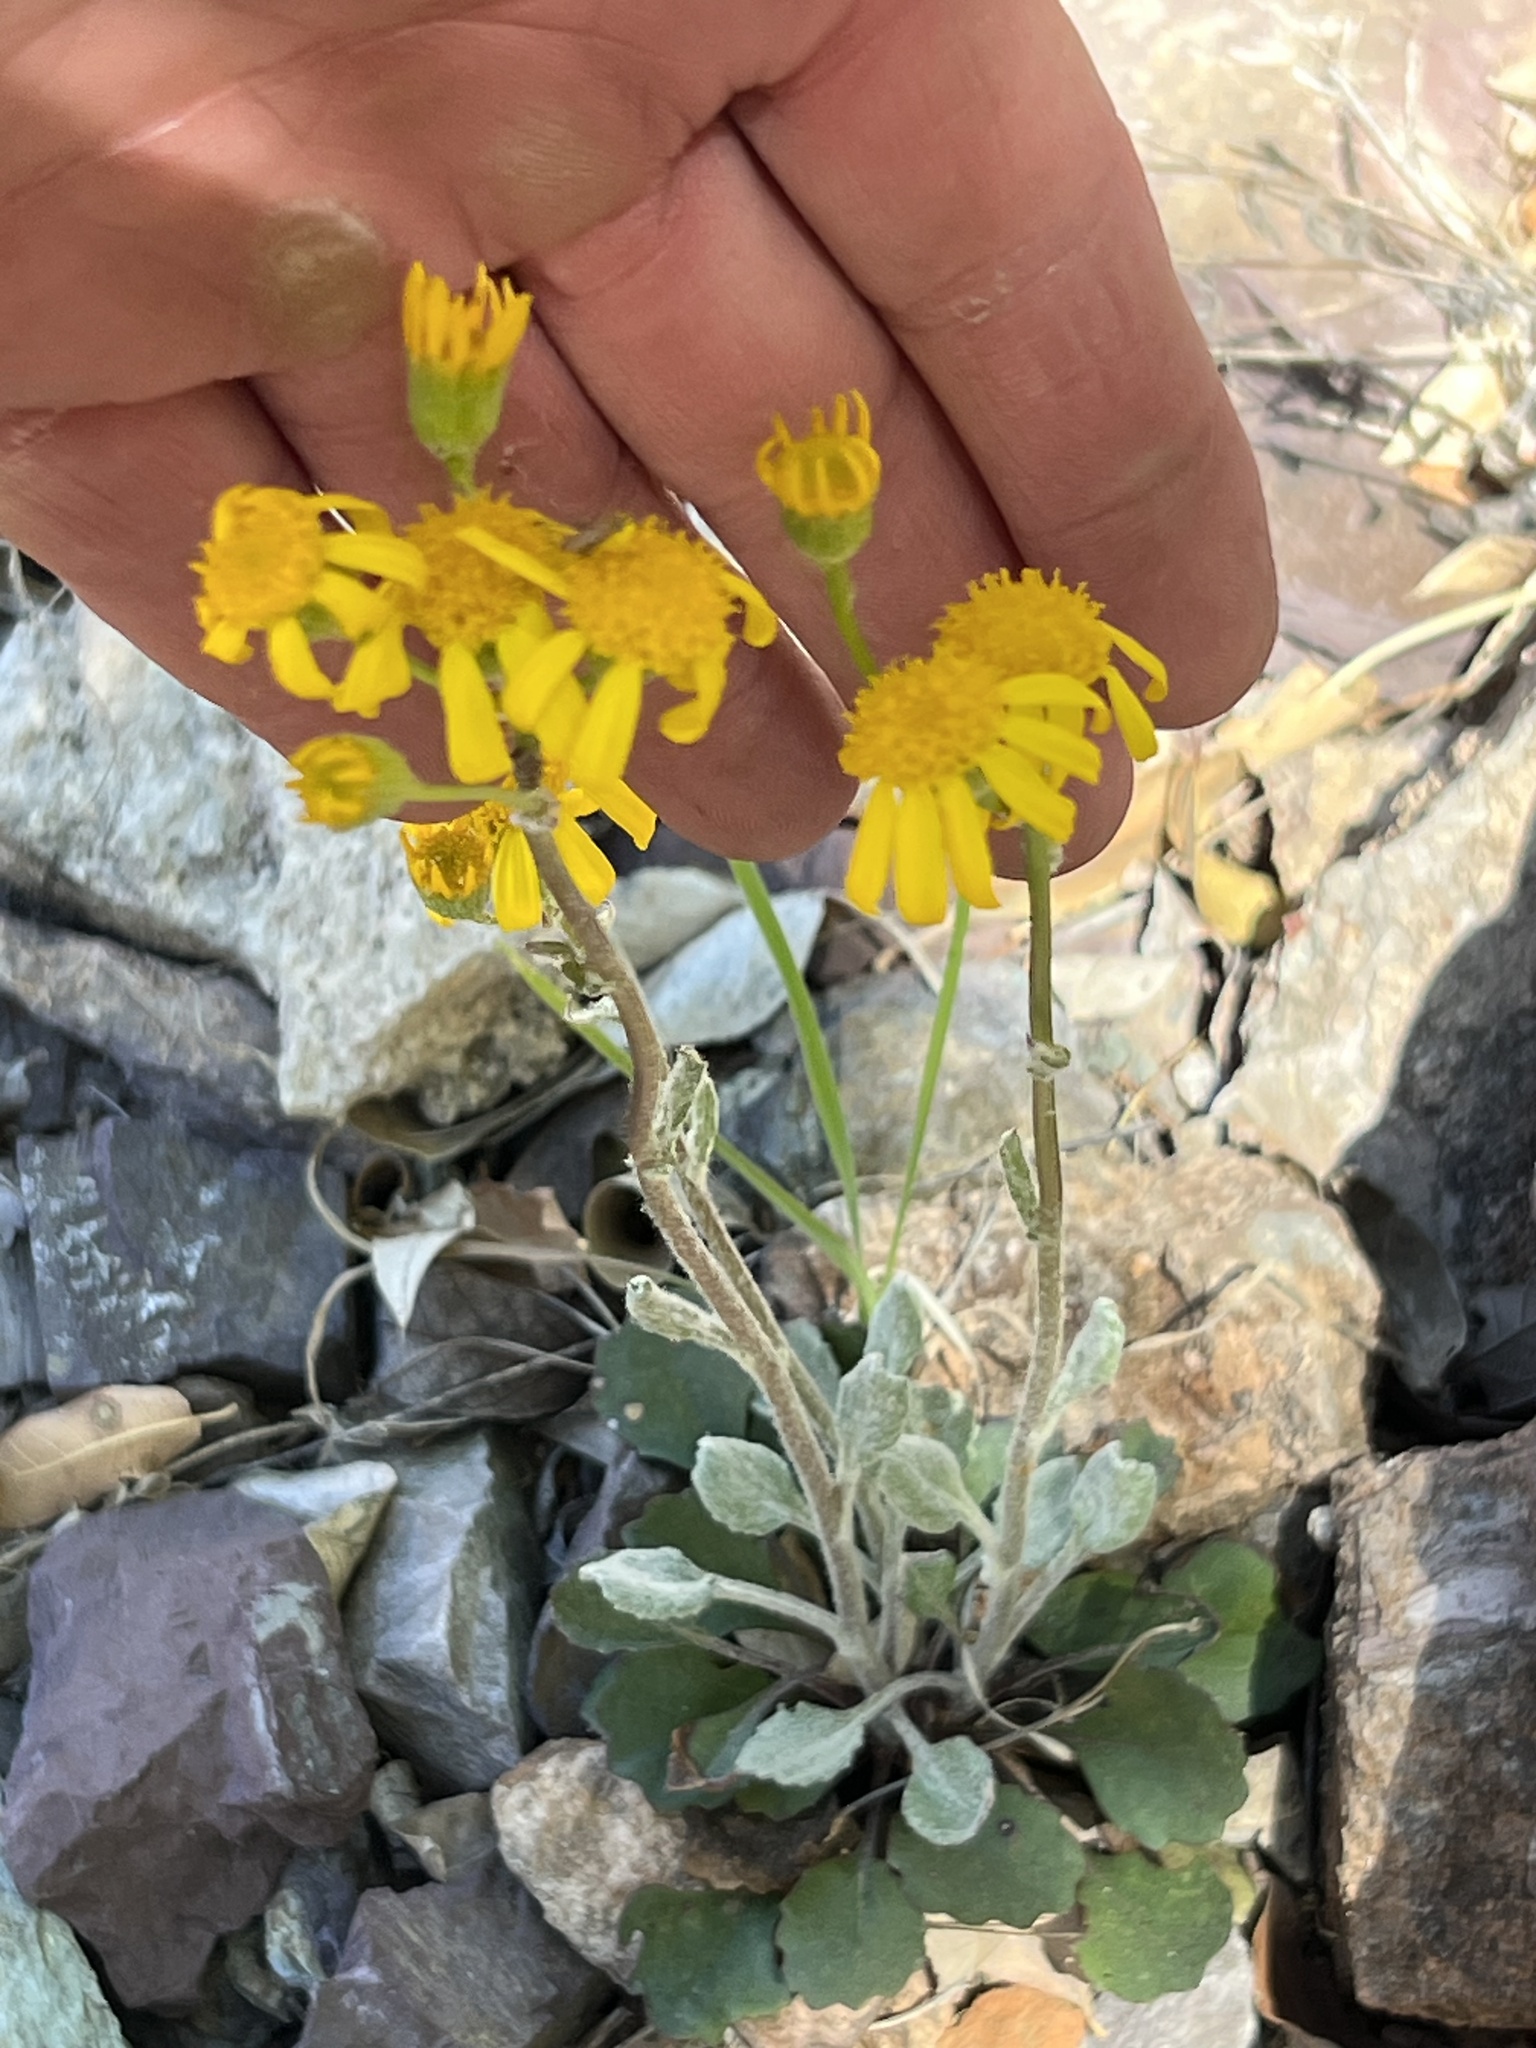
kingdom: Plantae
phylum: Tracheophyta
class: Magnoliopsida
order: Asterales
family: Asteraceae
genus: Packera
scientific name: Packera neomexicana
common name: New mexico butterweed
